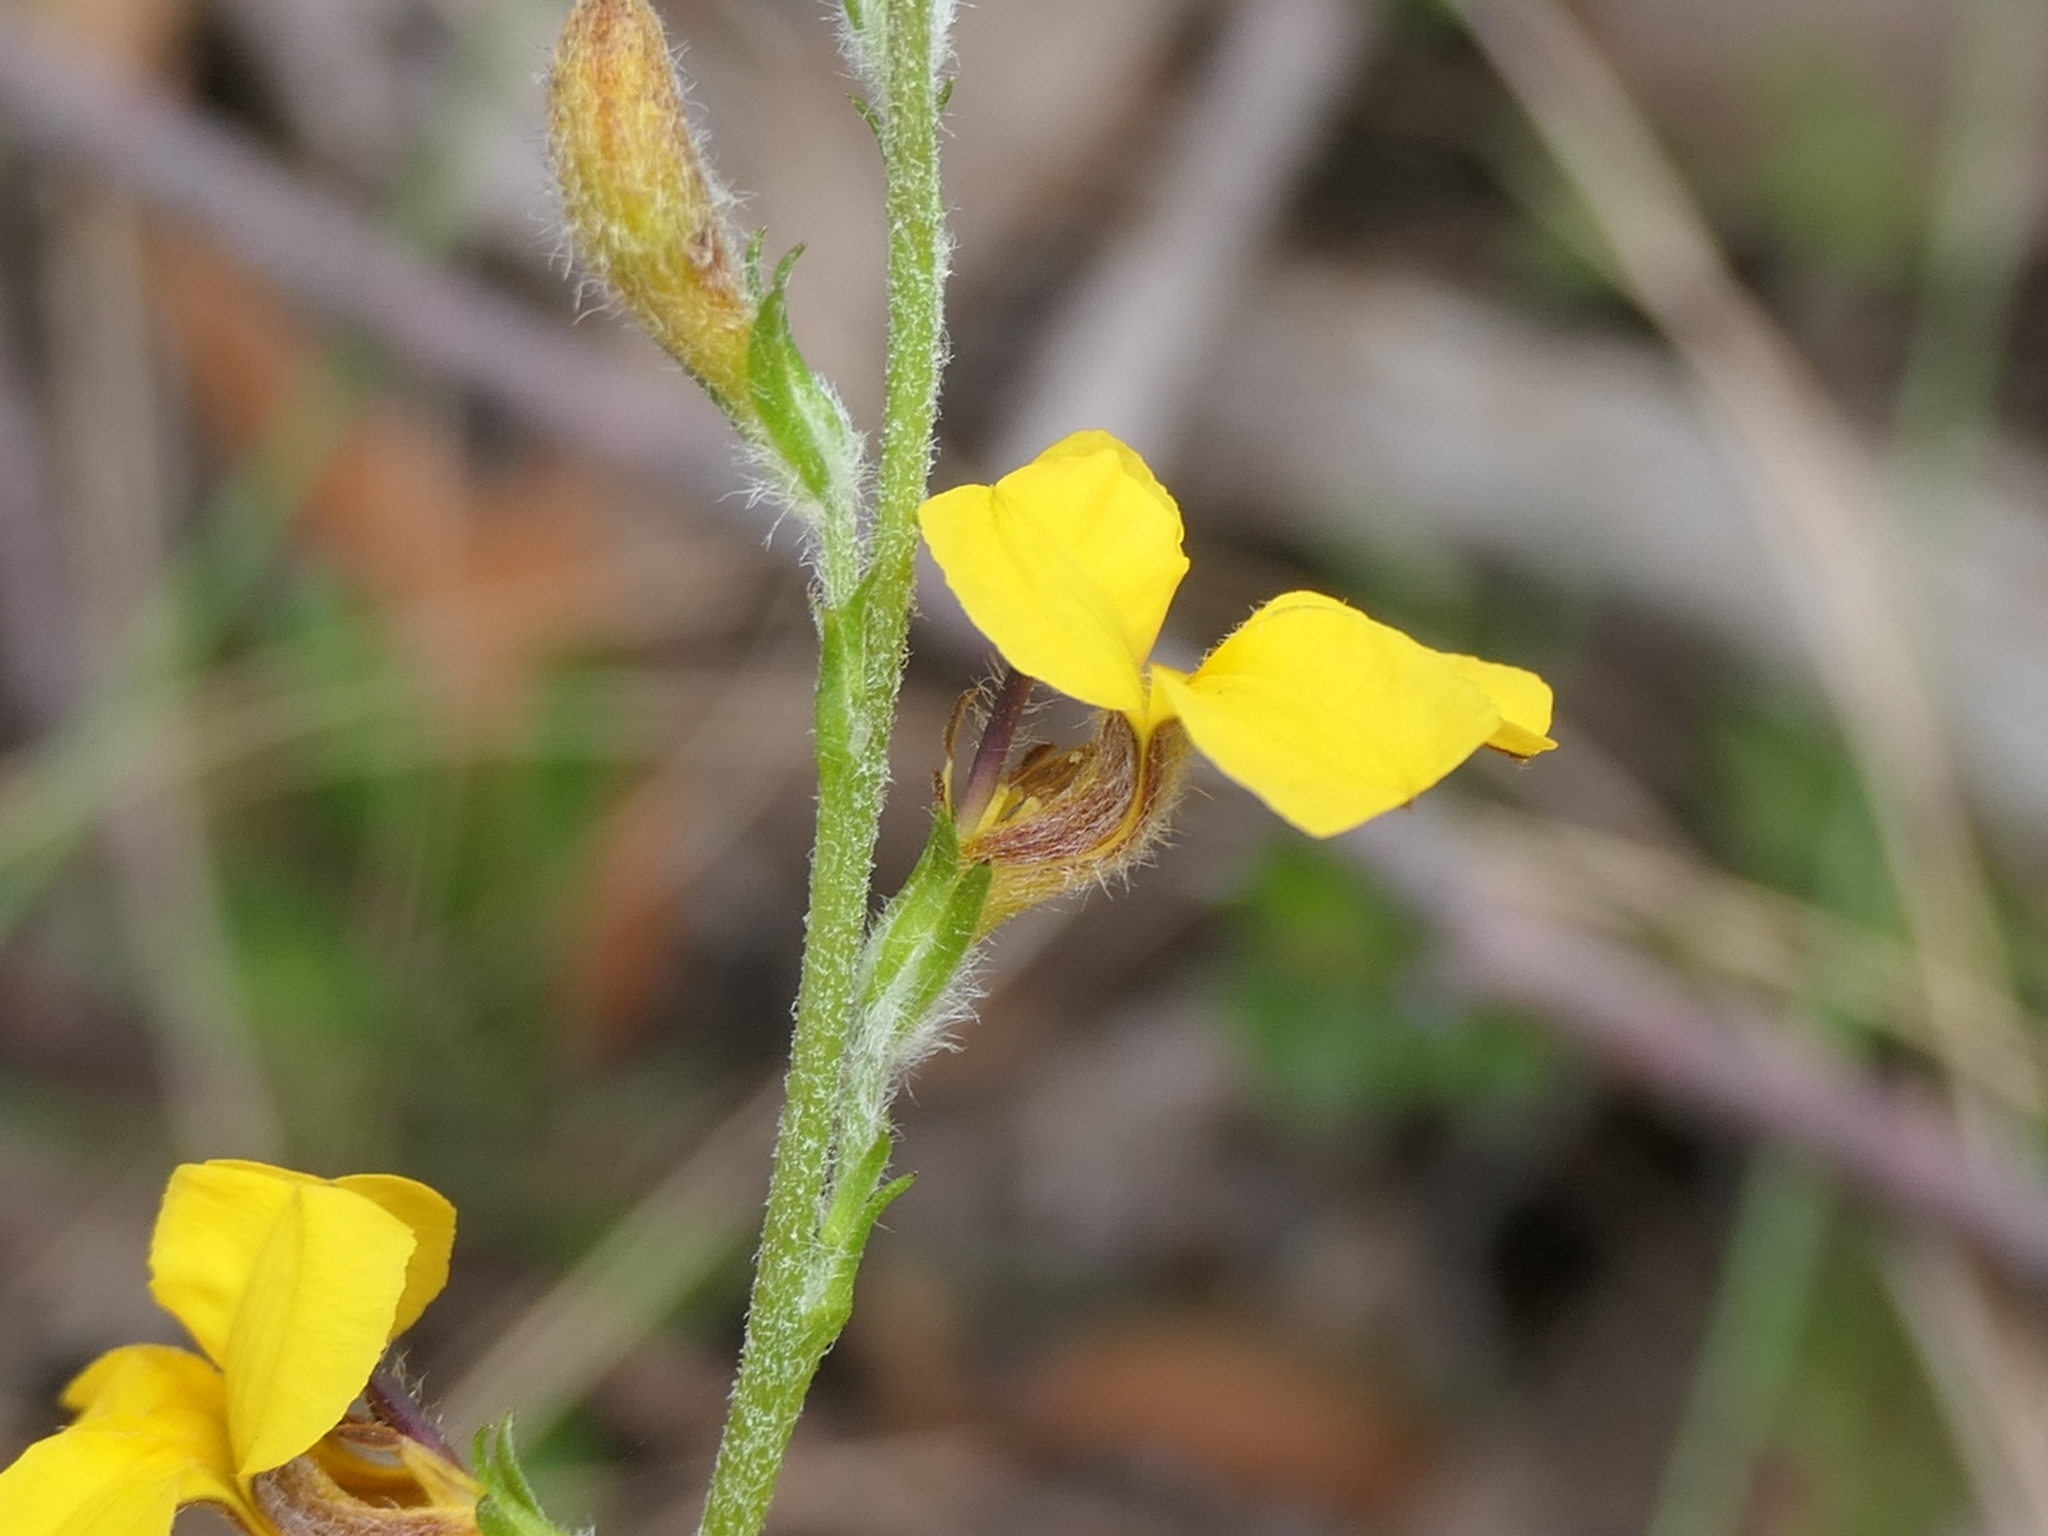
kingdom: Plantae
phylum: Tracheophyta
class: Magnoliopsida
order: Asterales
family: Goodeniaceae
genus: Goodenia
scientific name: Goodenia bellidifolia
